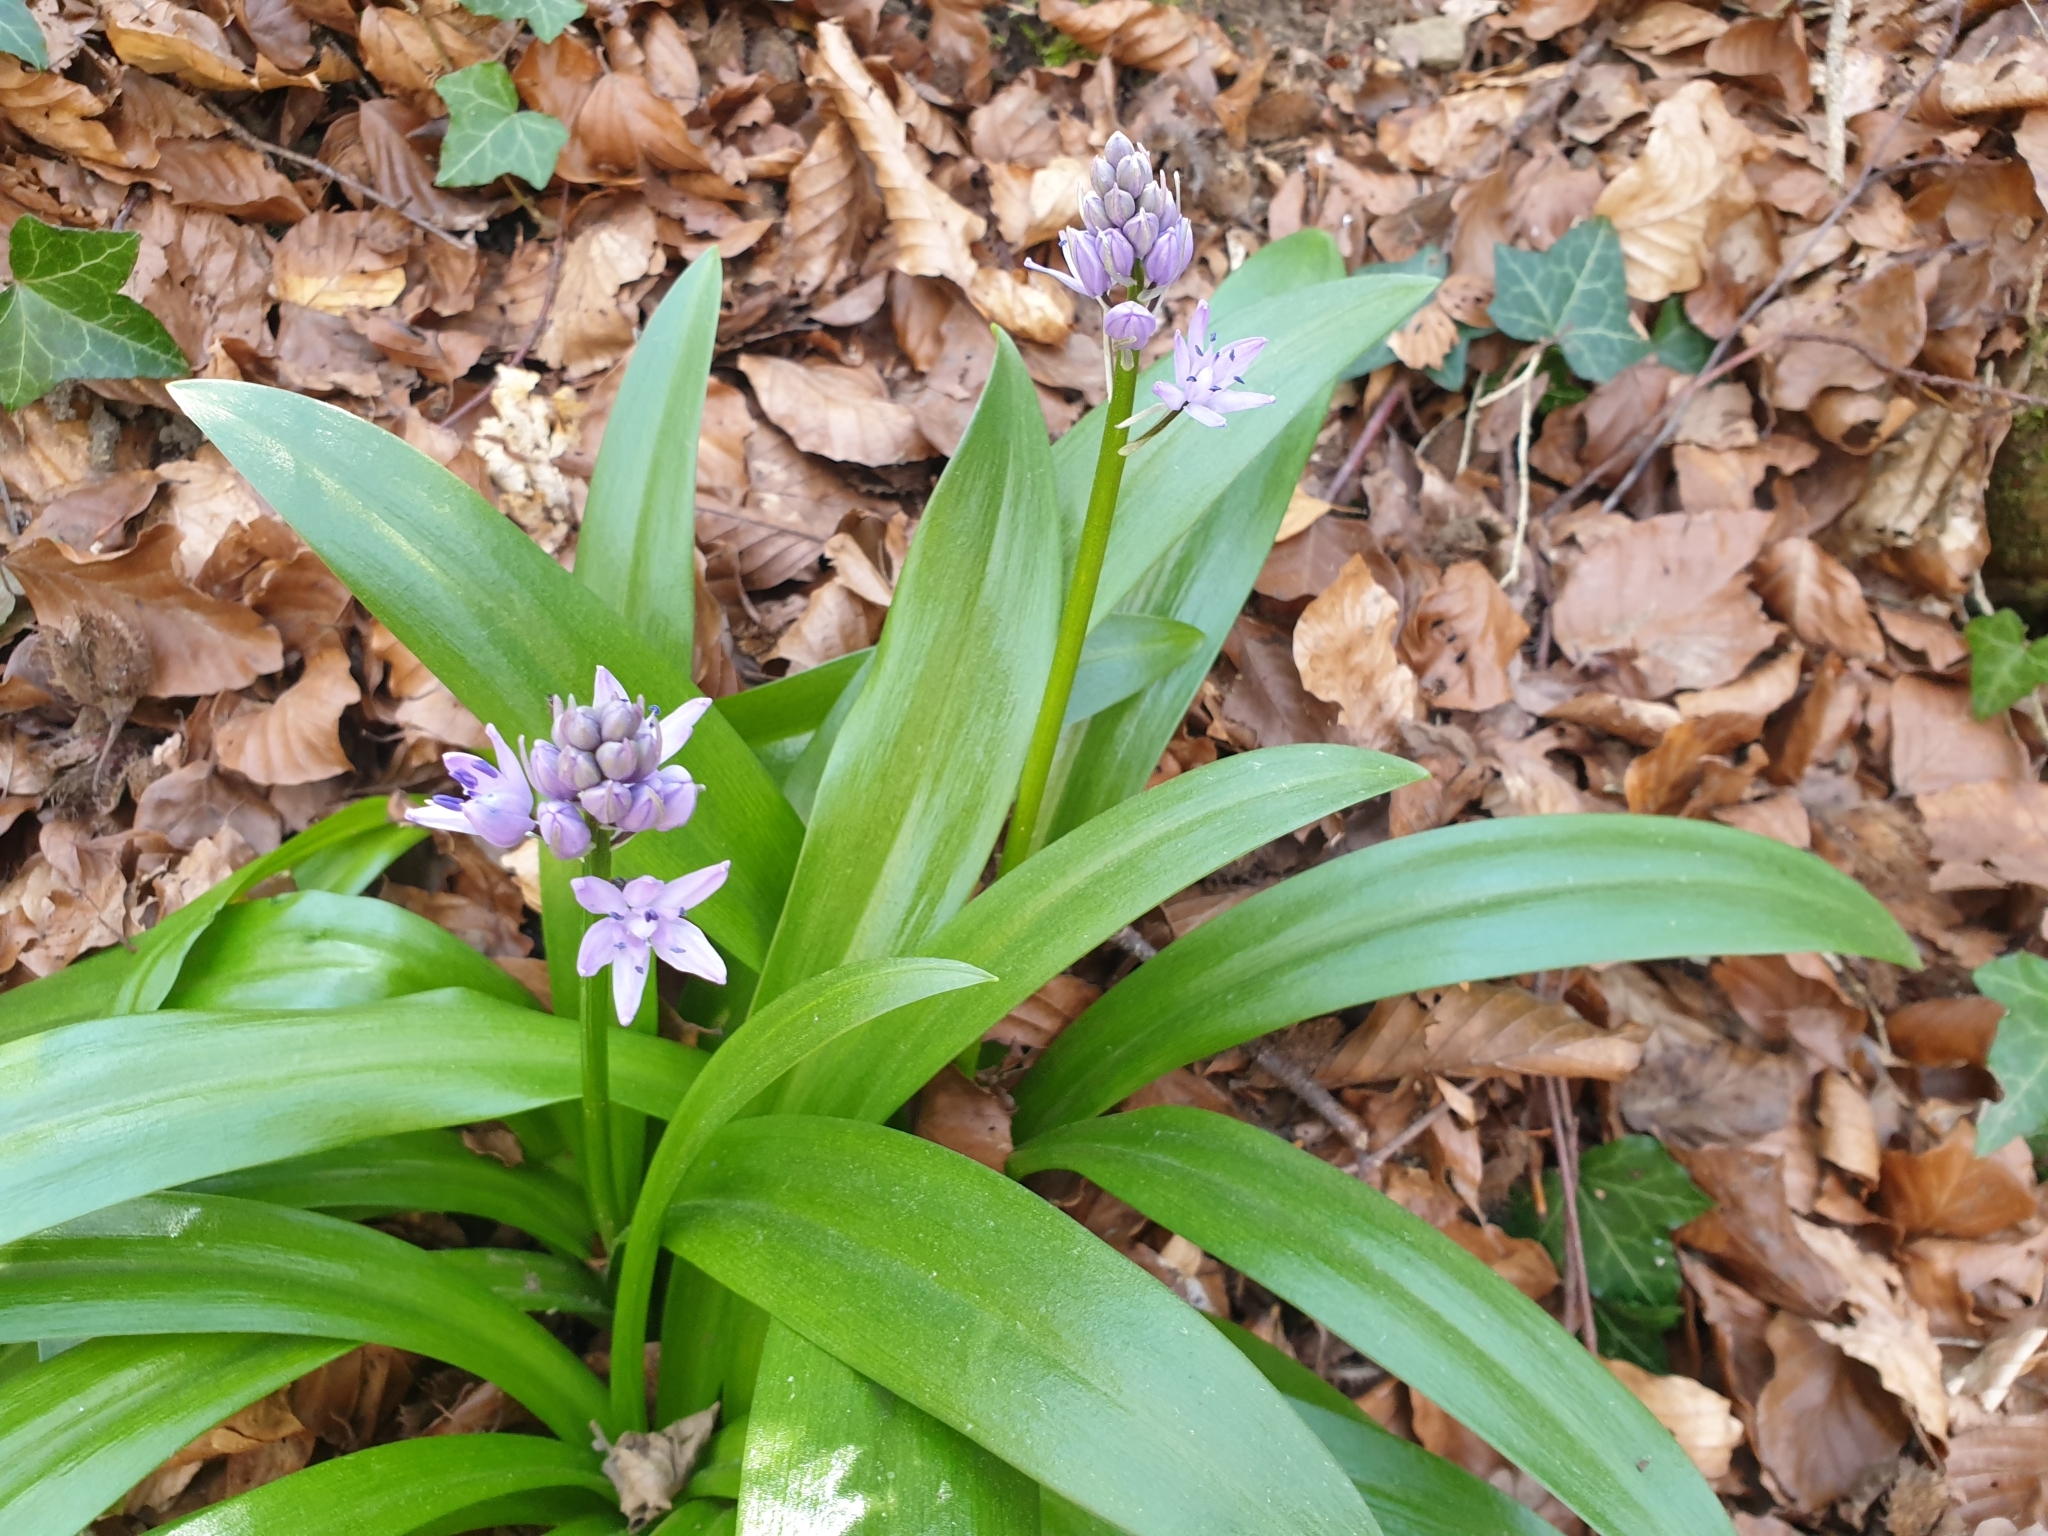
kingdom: Plantae
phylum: Tracheophyta
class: Liliopsida
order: Asparagales
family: Asparagaceae
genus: Scilla
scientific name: Scilla lilio-hyacinthus
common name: Pyrenean squill
